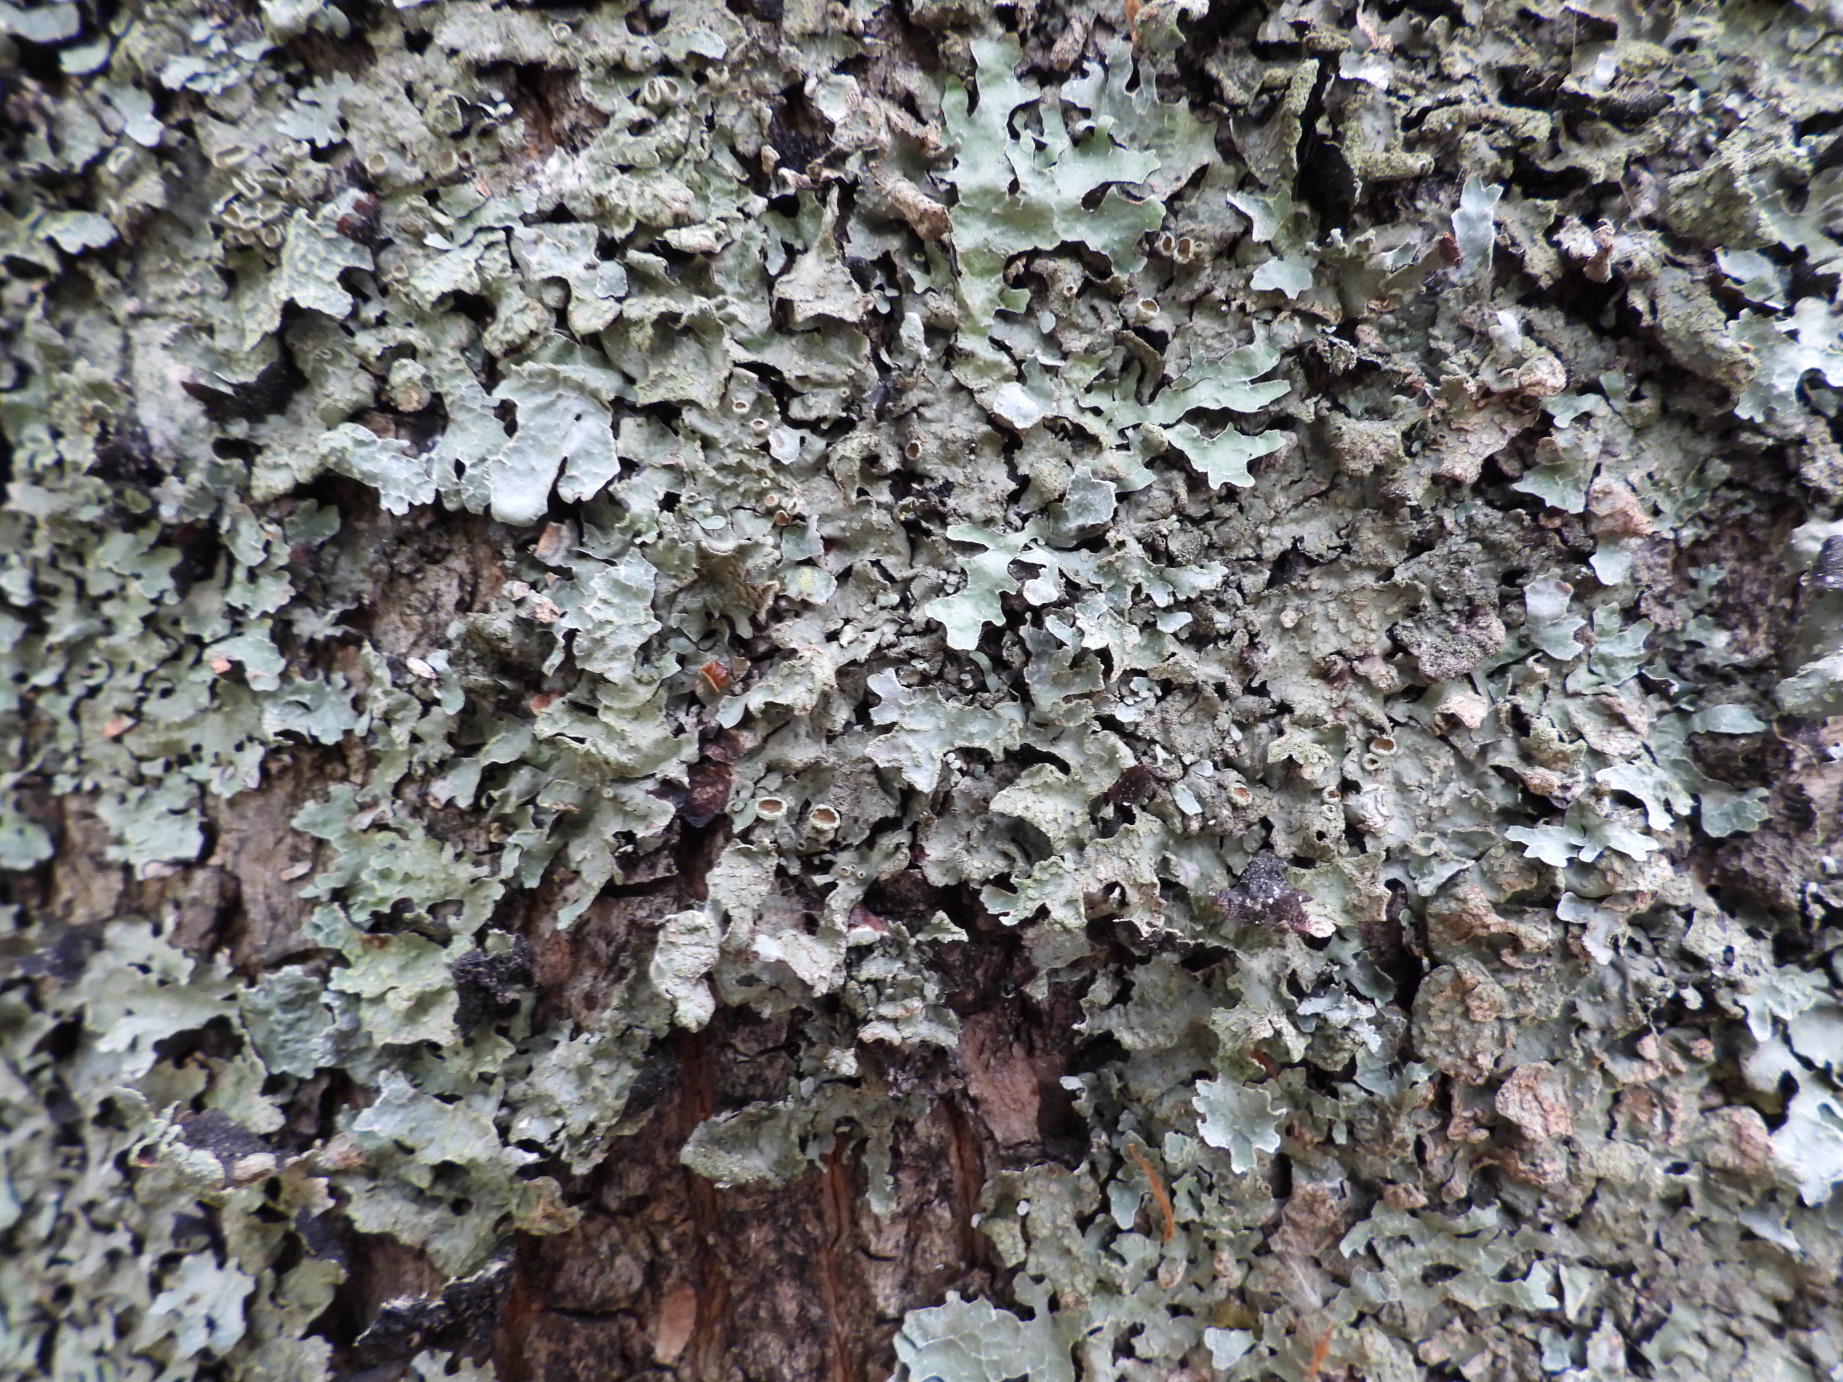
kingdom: Fungi
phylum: Ascomycota
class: Lecanoromycetes
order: Lecanorales
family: Parmeliaceae
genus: Parmelia
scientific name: Parmelia sulcata
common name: Netted shield lichen
